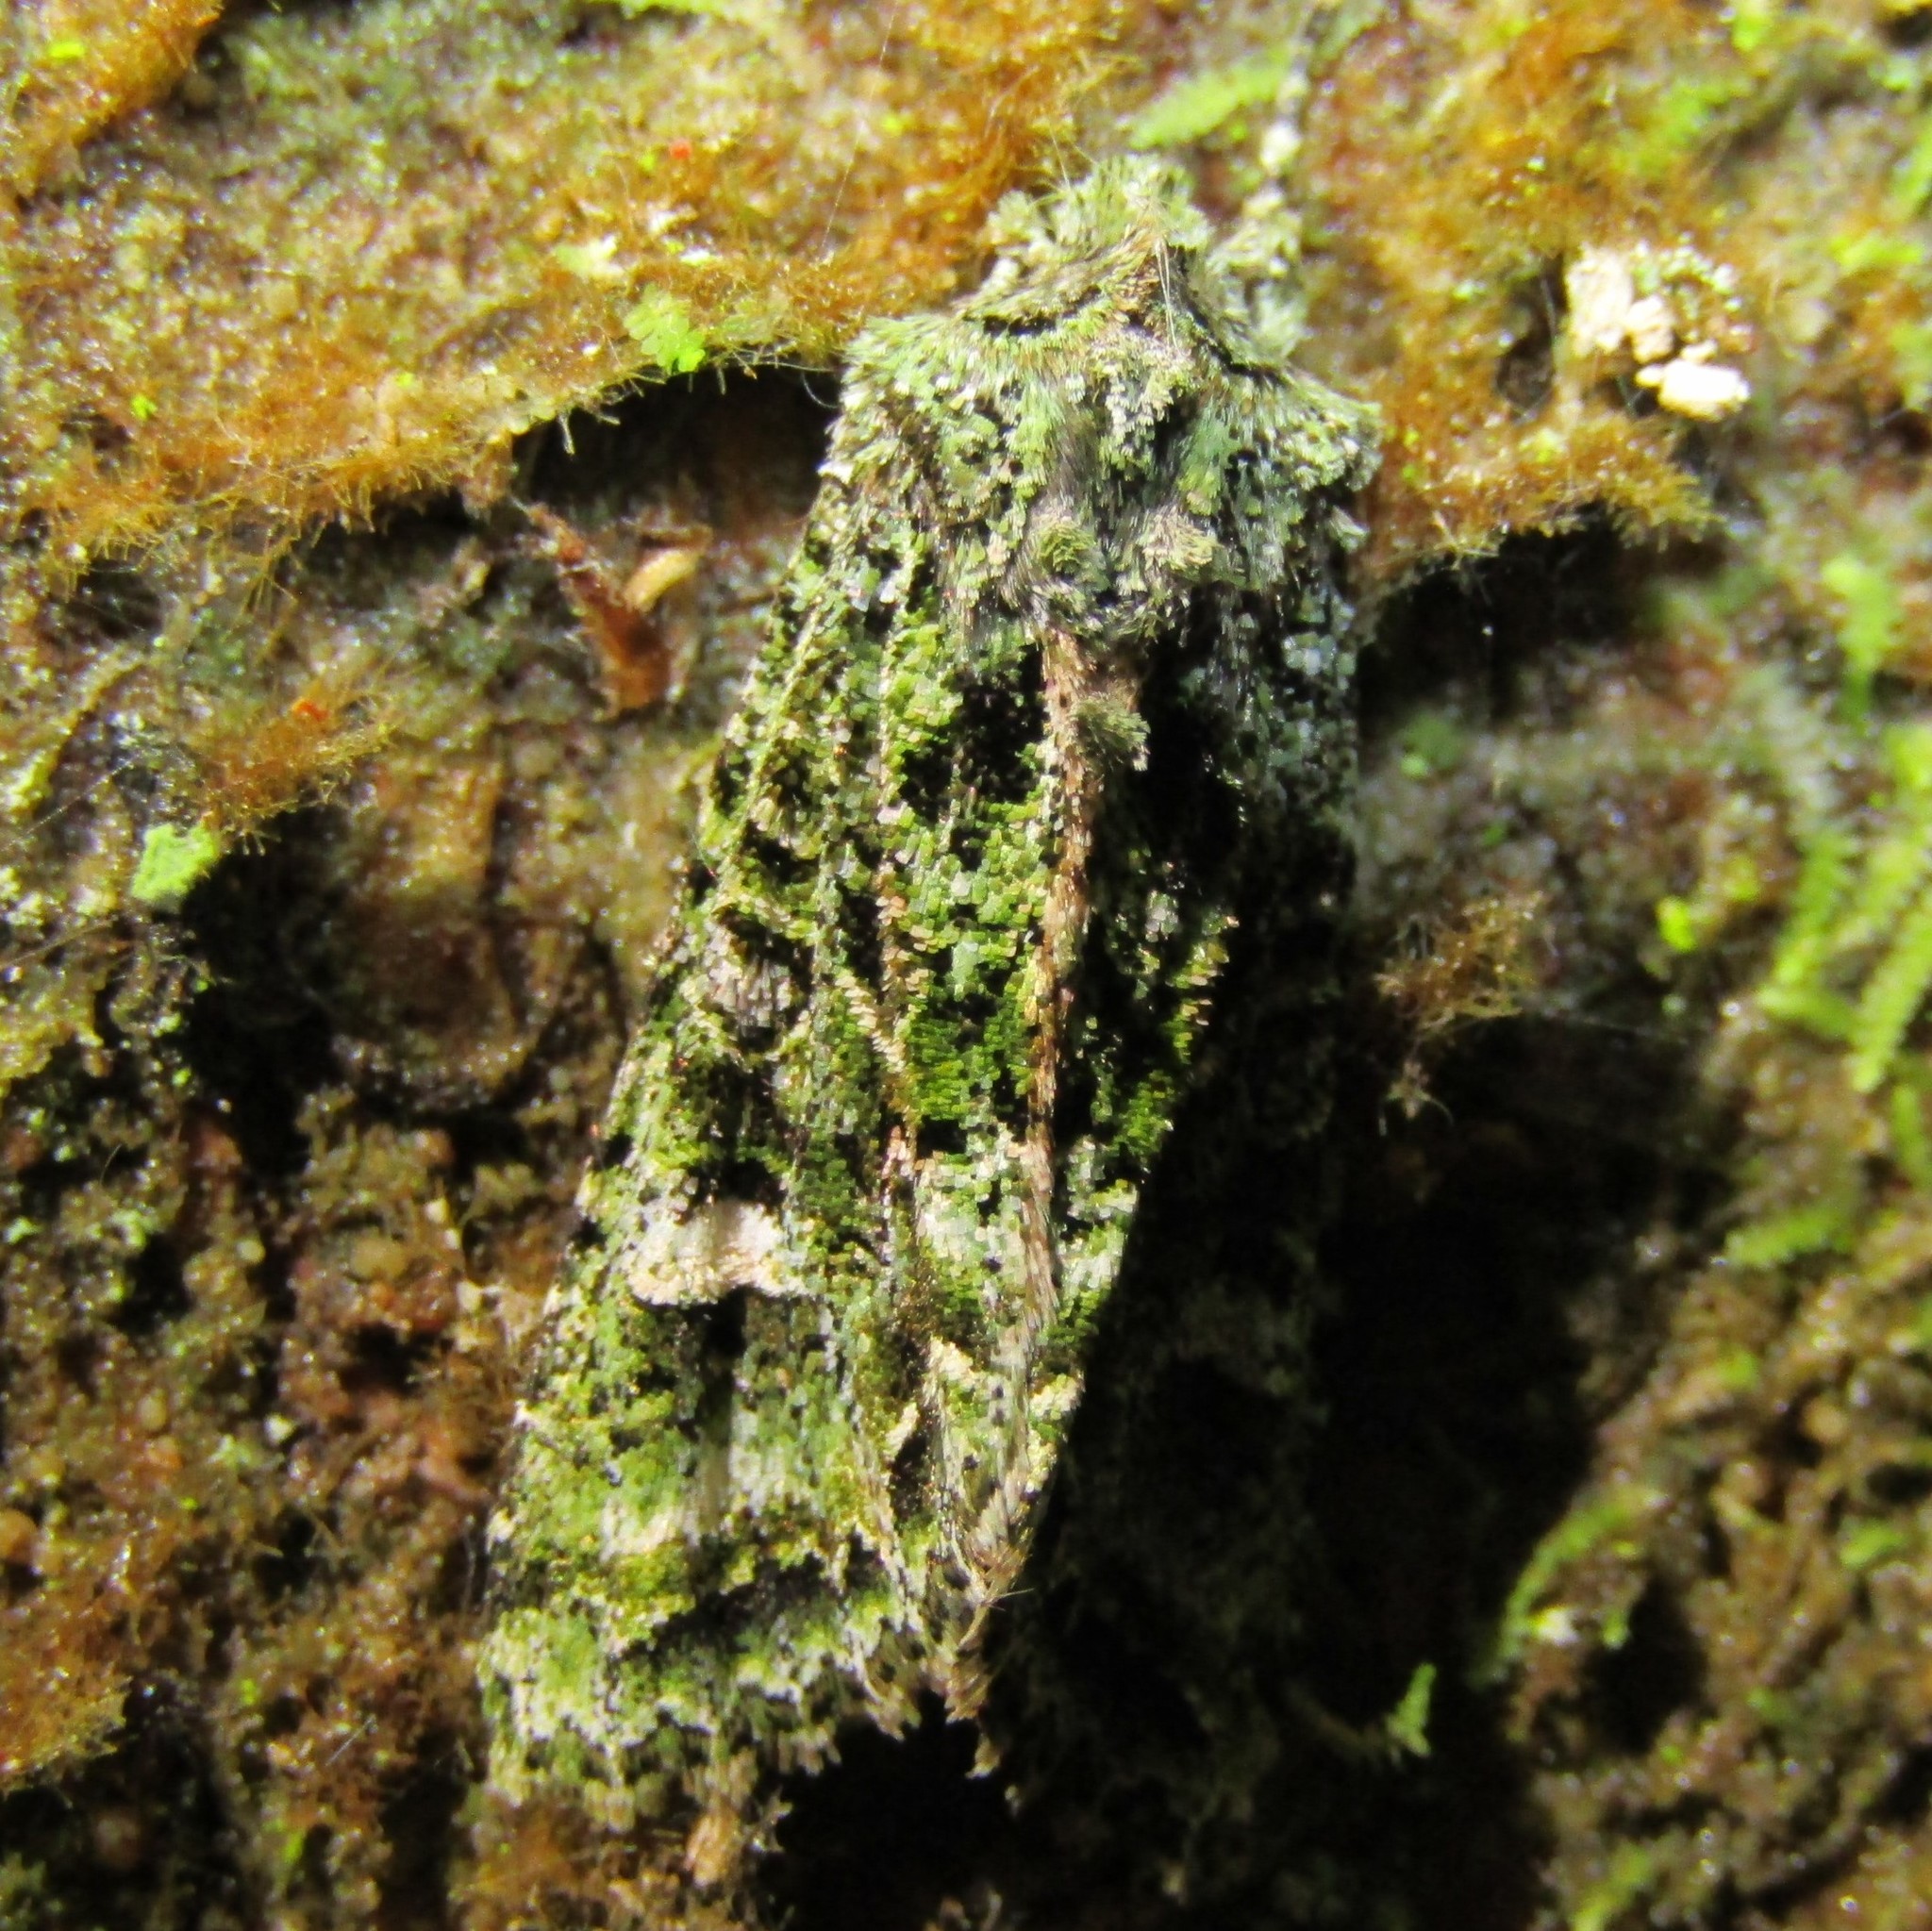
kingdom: Animalia
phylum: Arthropoda
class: Insecta
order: Lepidoptera
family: Noctuidae
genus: Ichneutica
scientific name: Ichneutica
